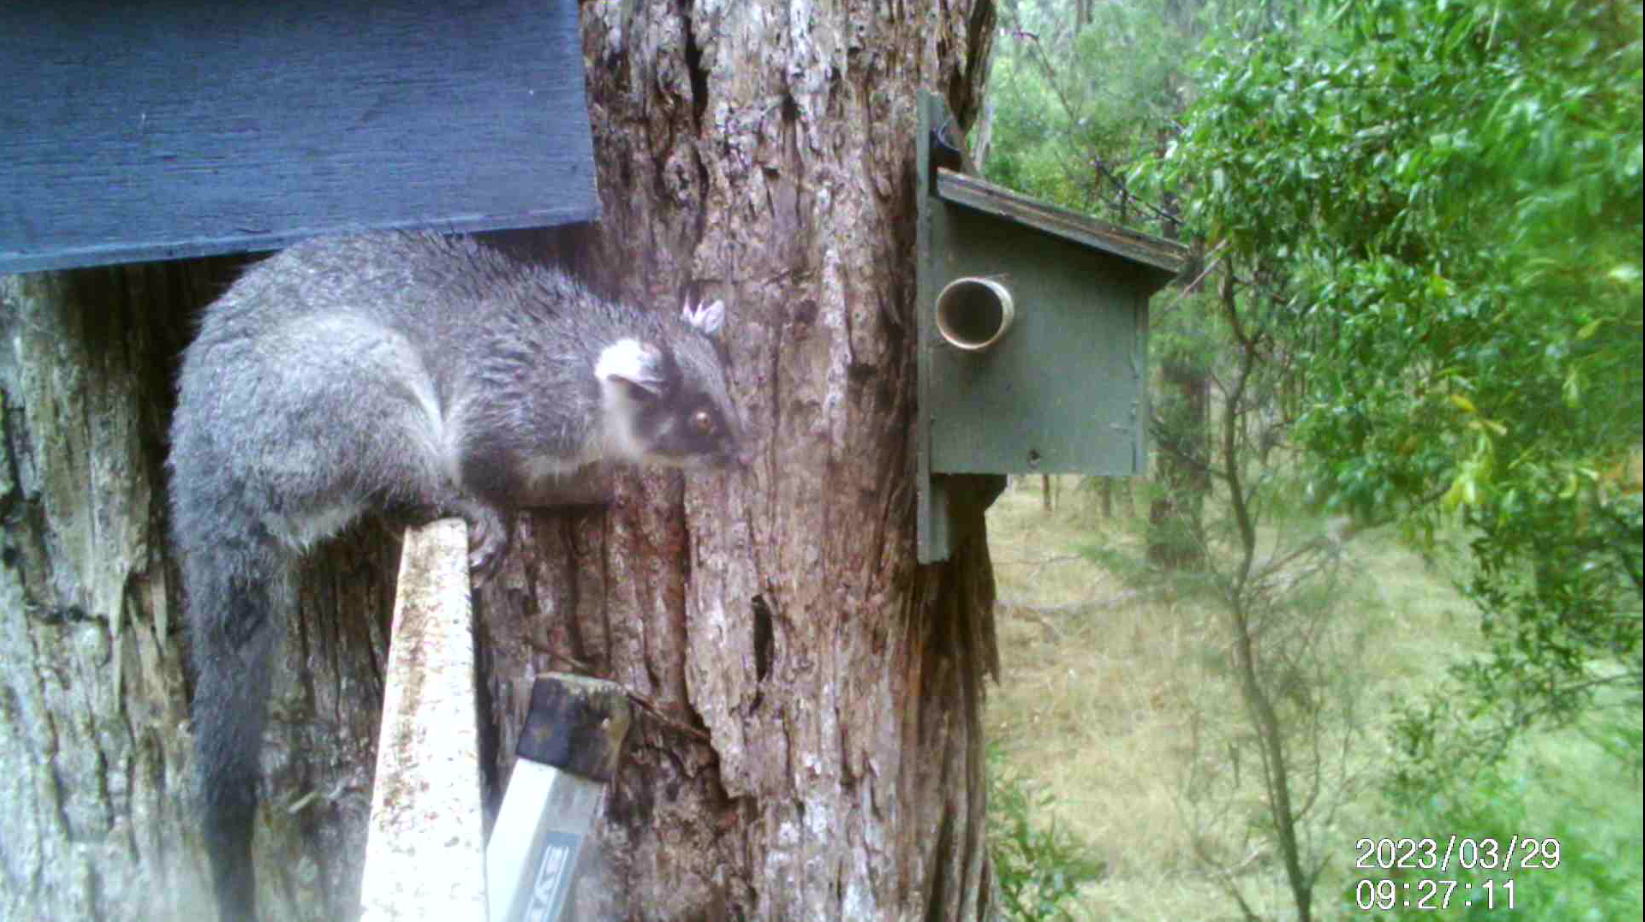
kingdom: Animalia
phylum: Chordata
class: Mammalia
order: Diprotodontia
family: Pseudocheiridae
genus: Pseudocheirus
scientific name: Pseudocheirus peregrinus
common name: Common ringtail possum
